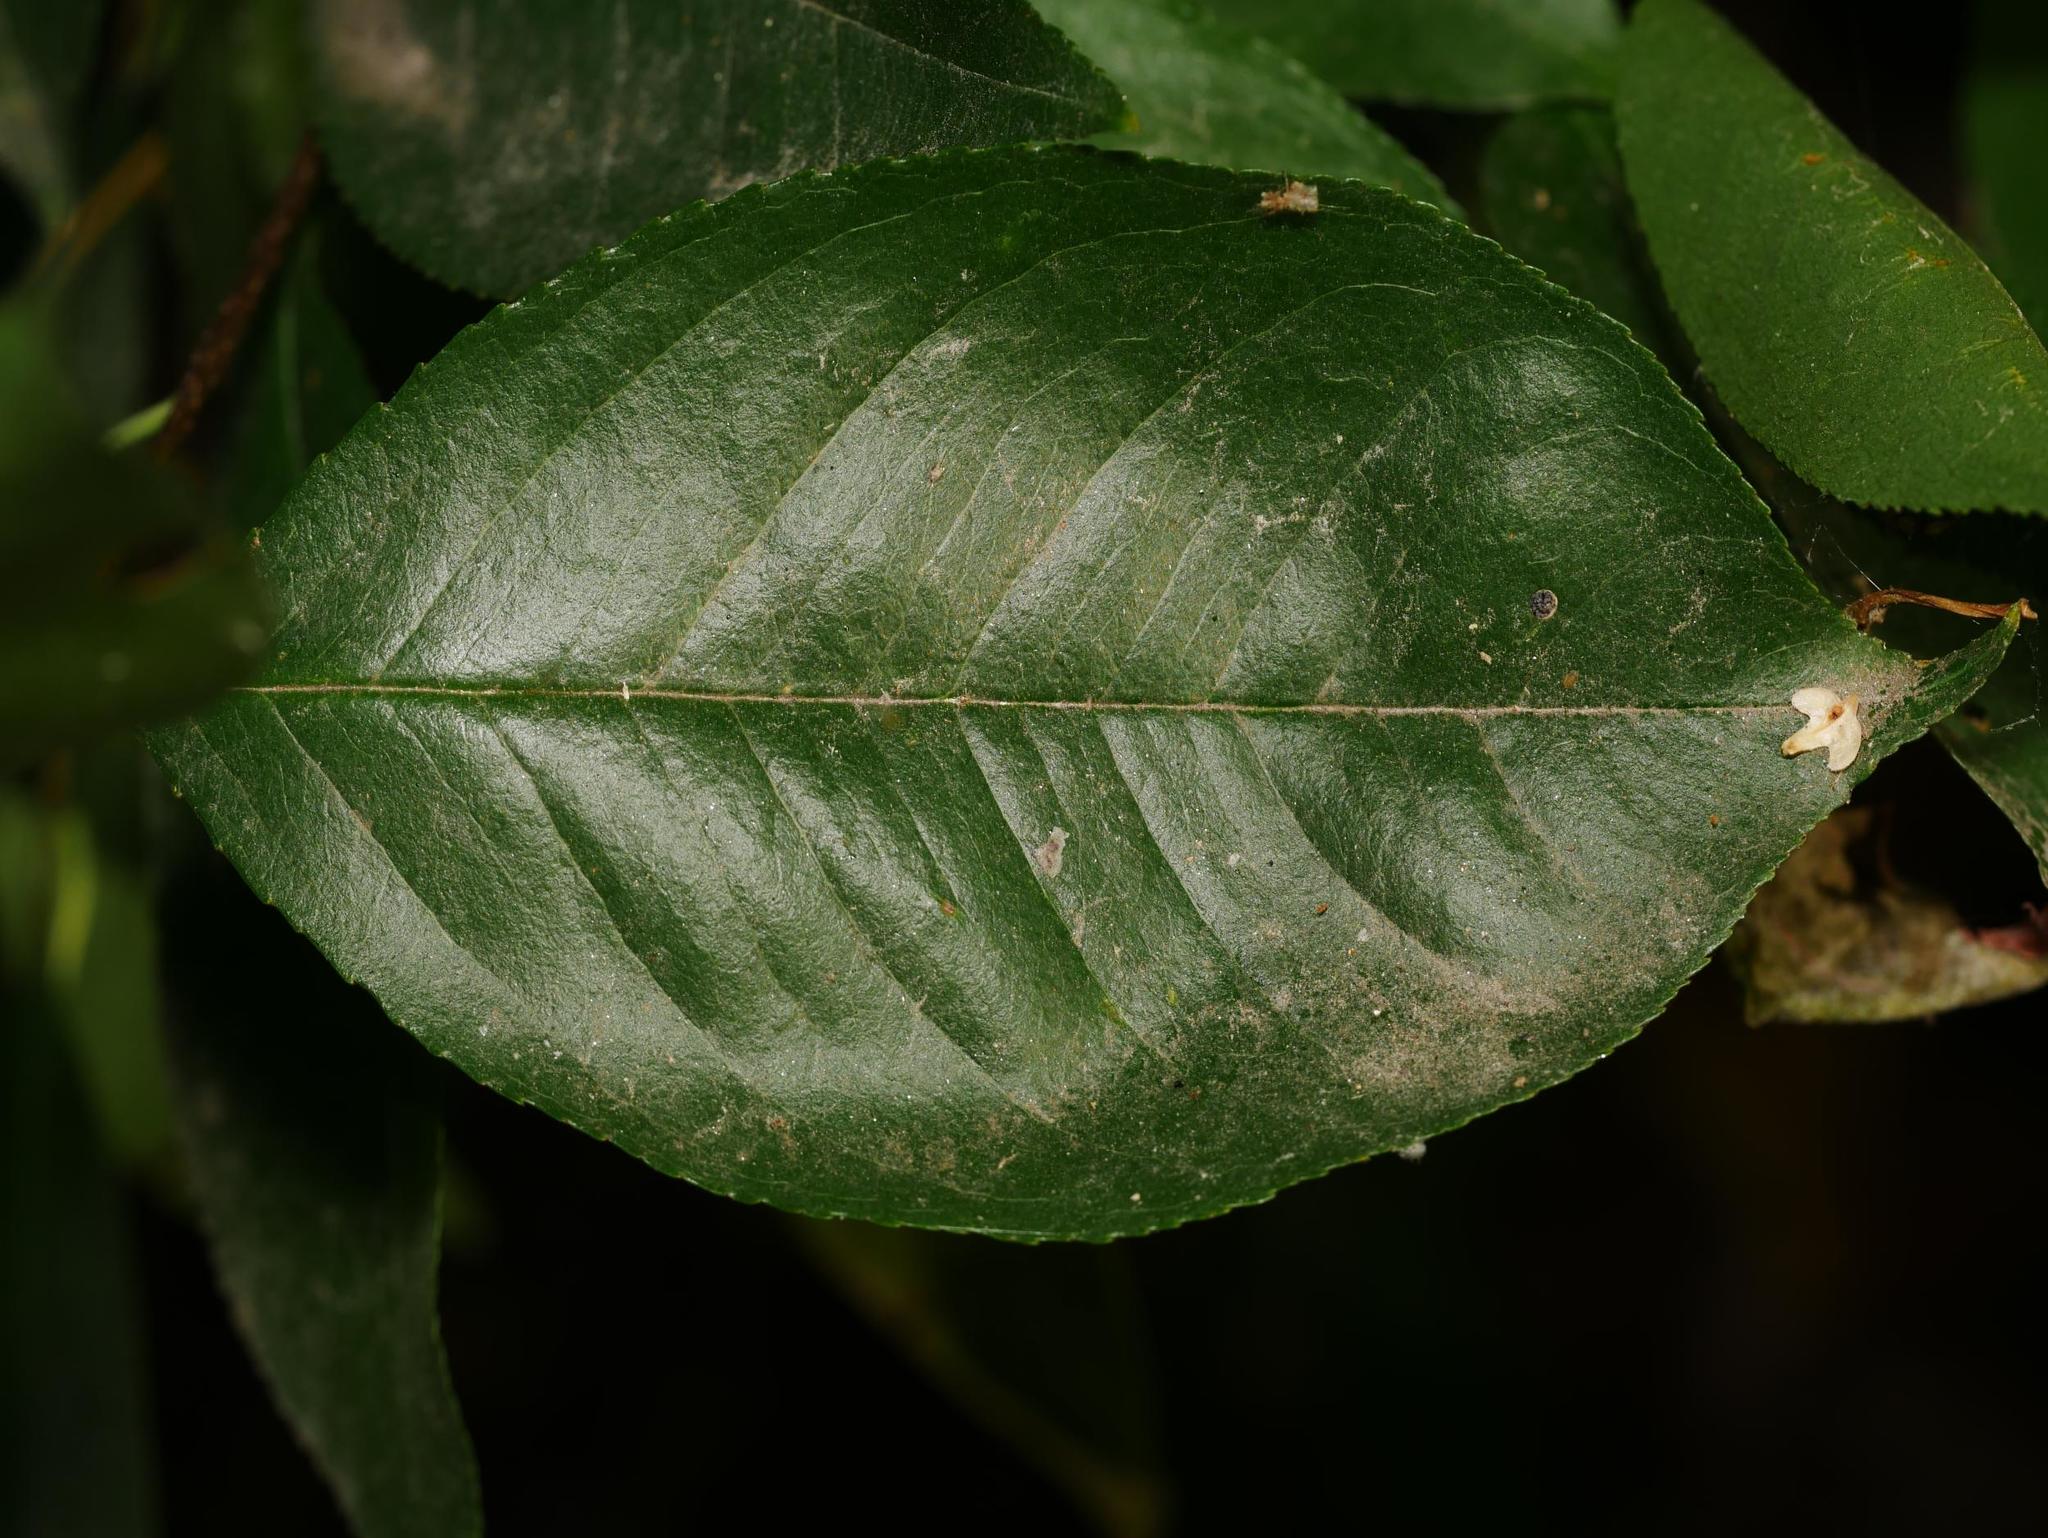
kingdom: Plantae
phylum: Tracheophyta
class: Magnoliopsida
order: Rosales
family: Rosaceae
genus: Prunus
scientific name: Prunus serotina
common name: Black cherry
